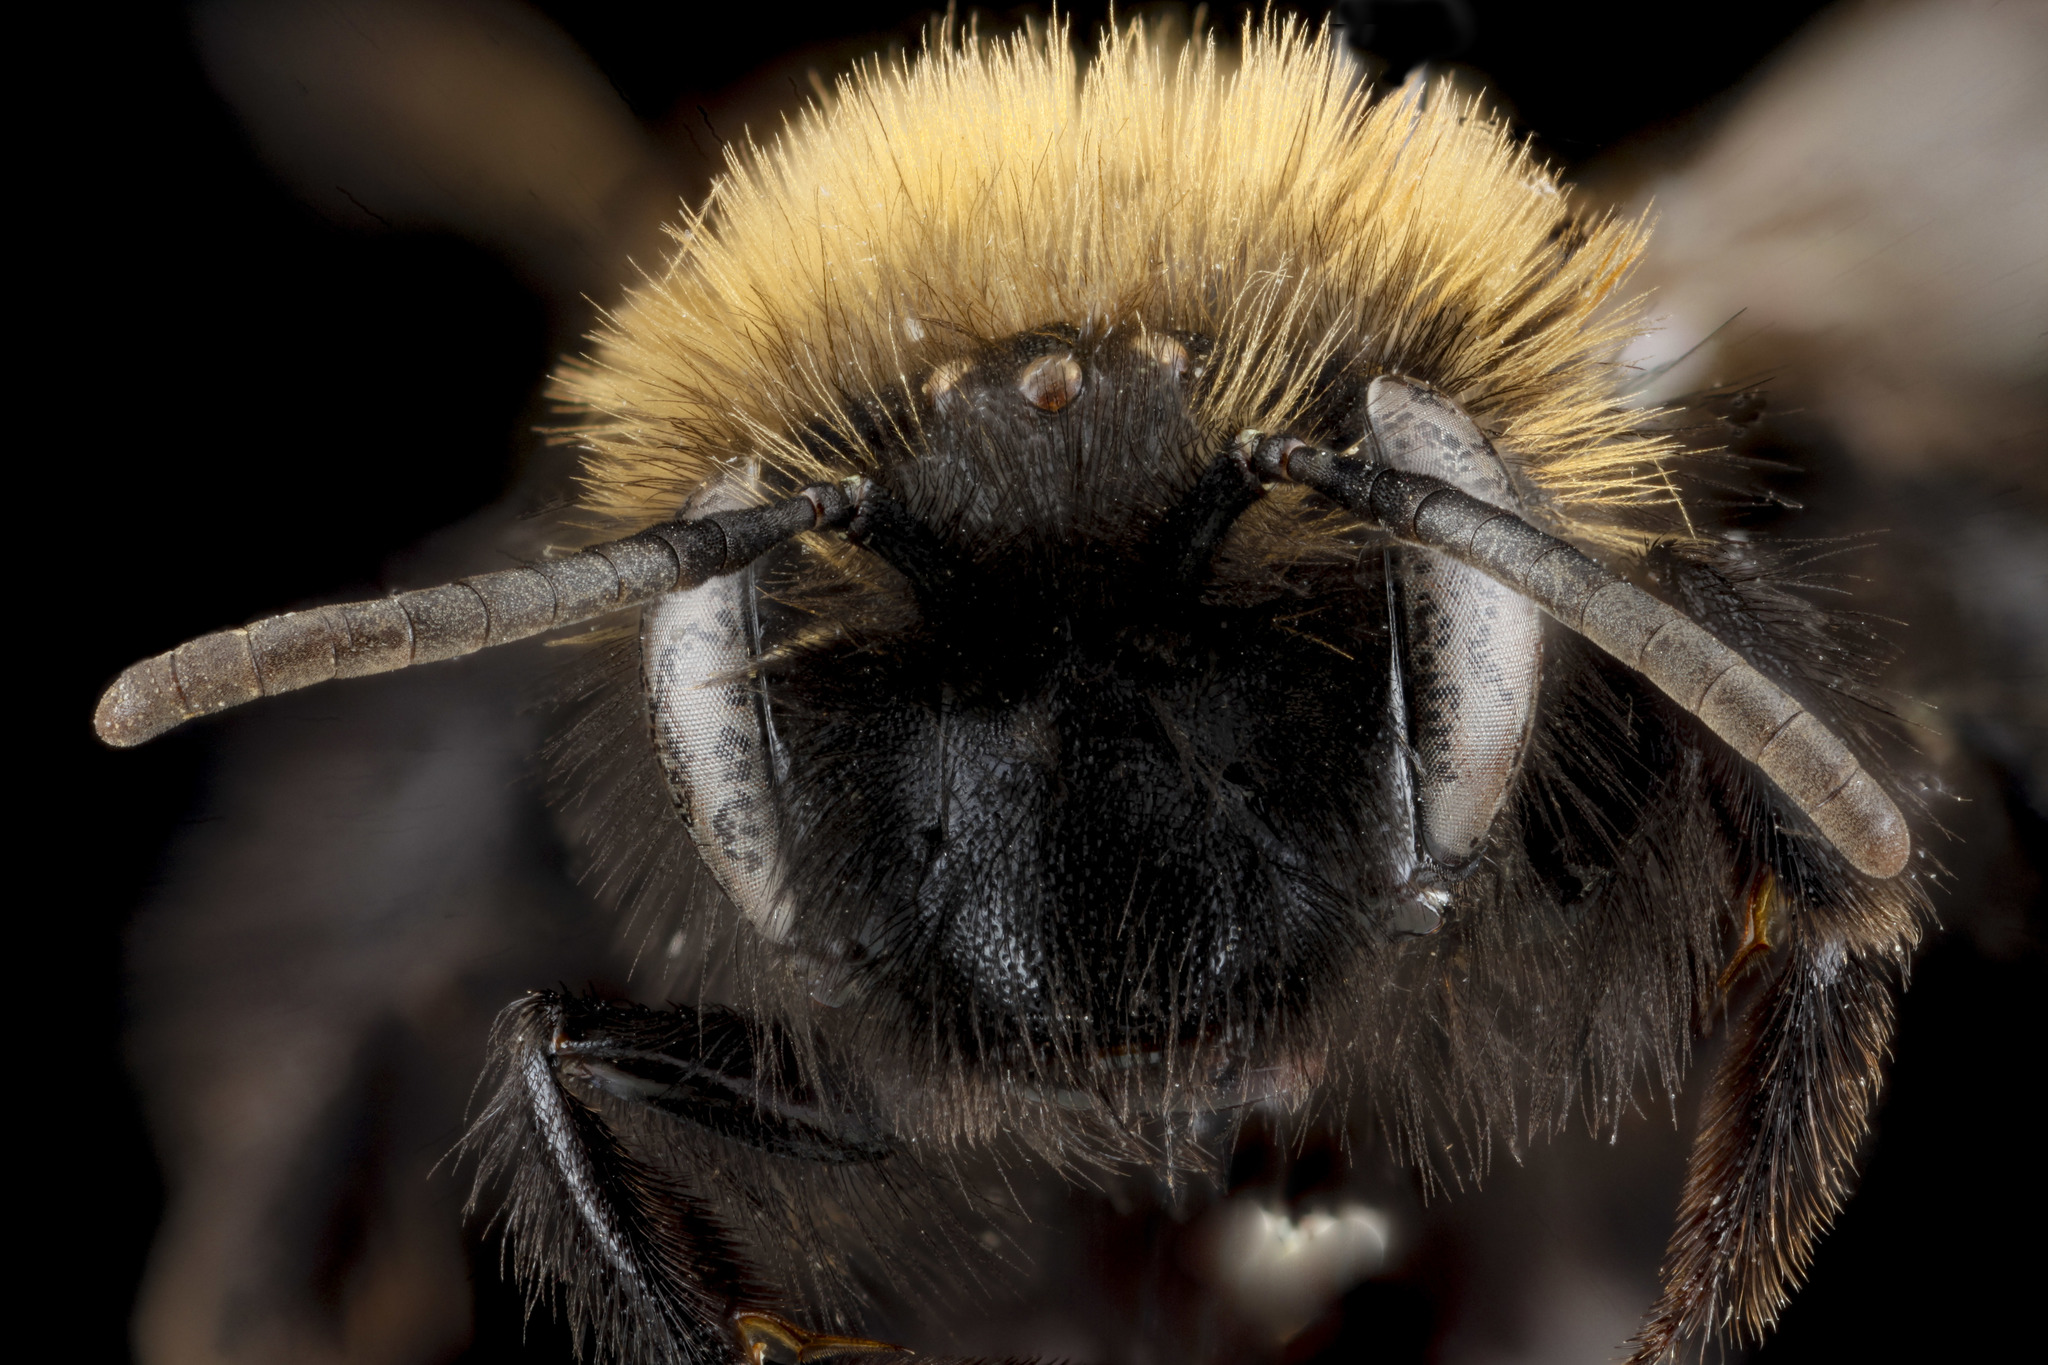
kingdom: Animalia
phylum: Arthropoda
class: Insecta
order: Hymenoptera
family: Andrenidae
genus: Andrena
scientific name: Andrena anograe
